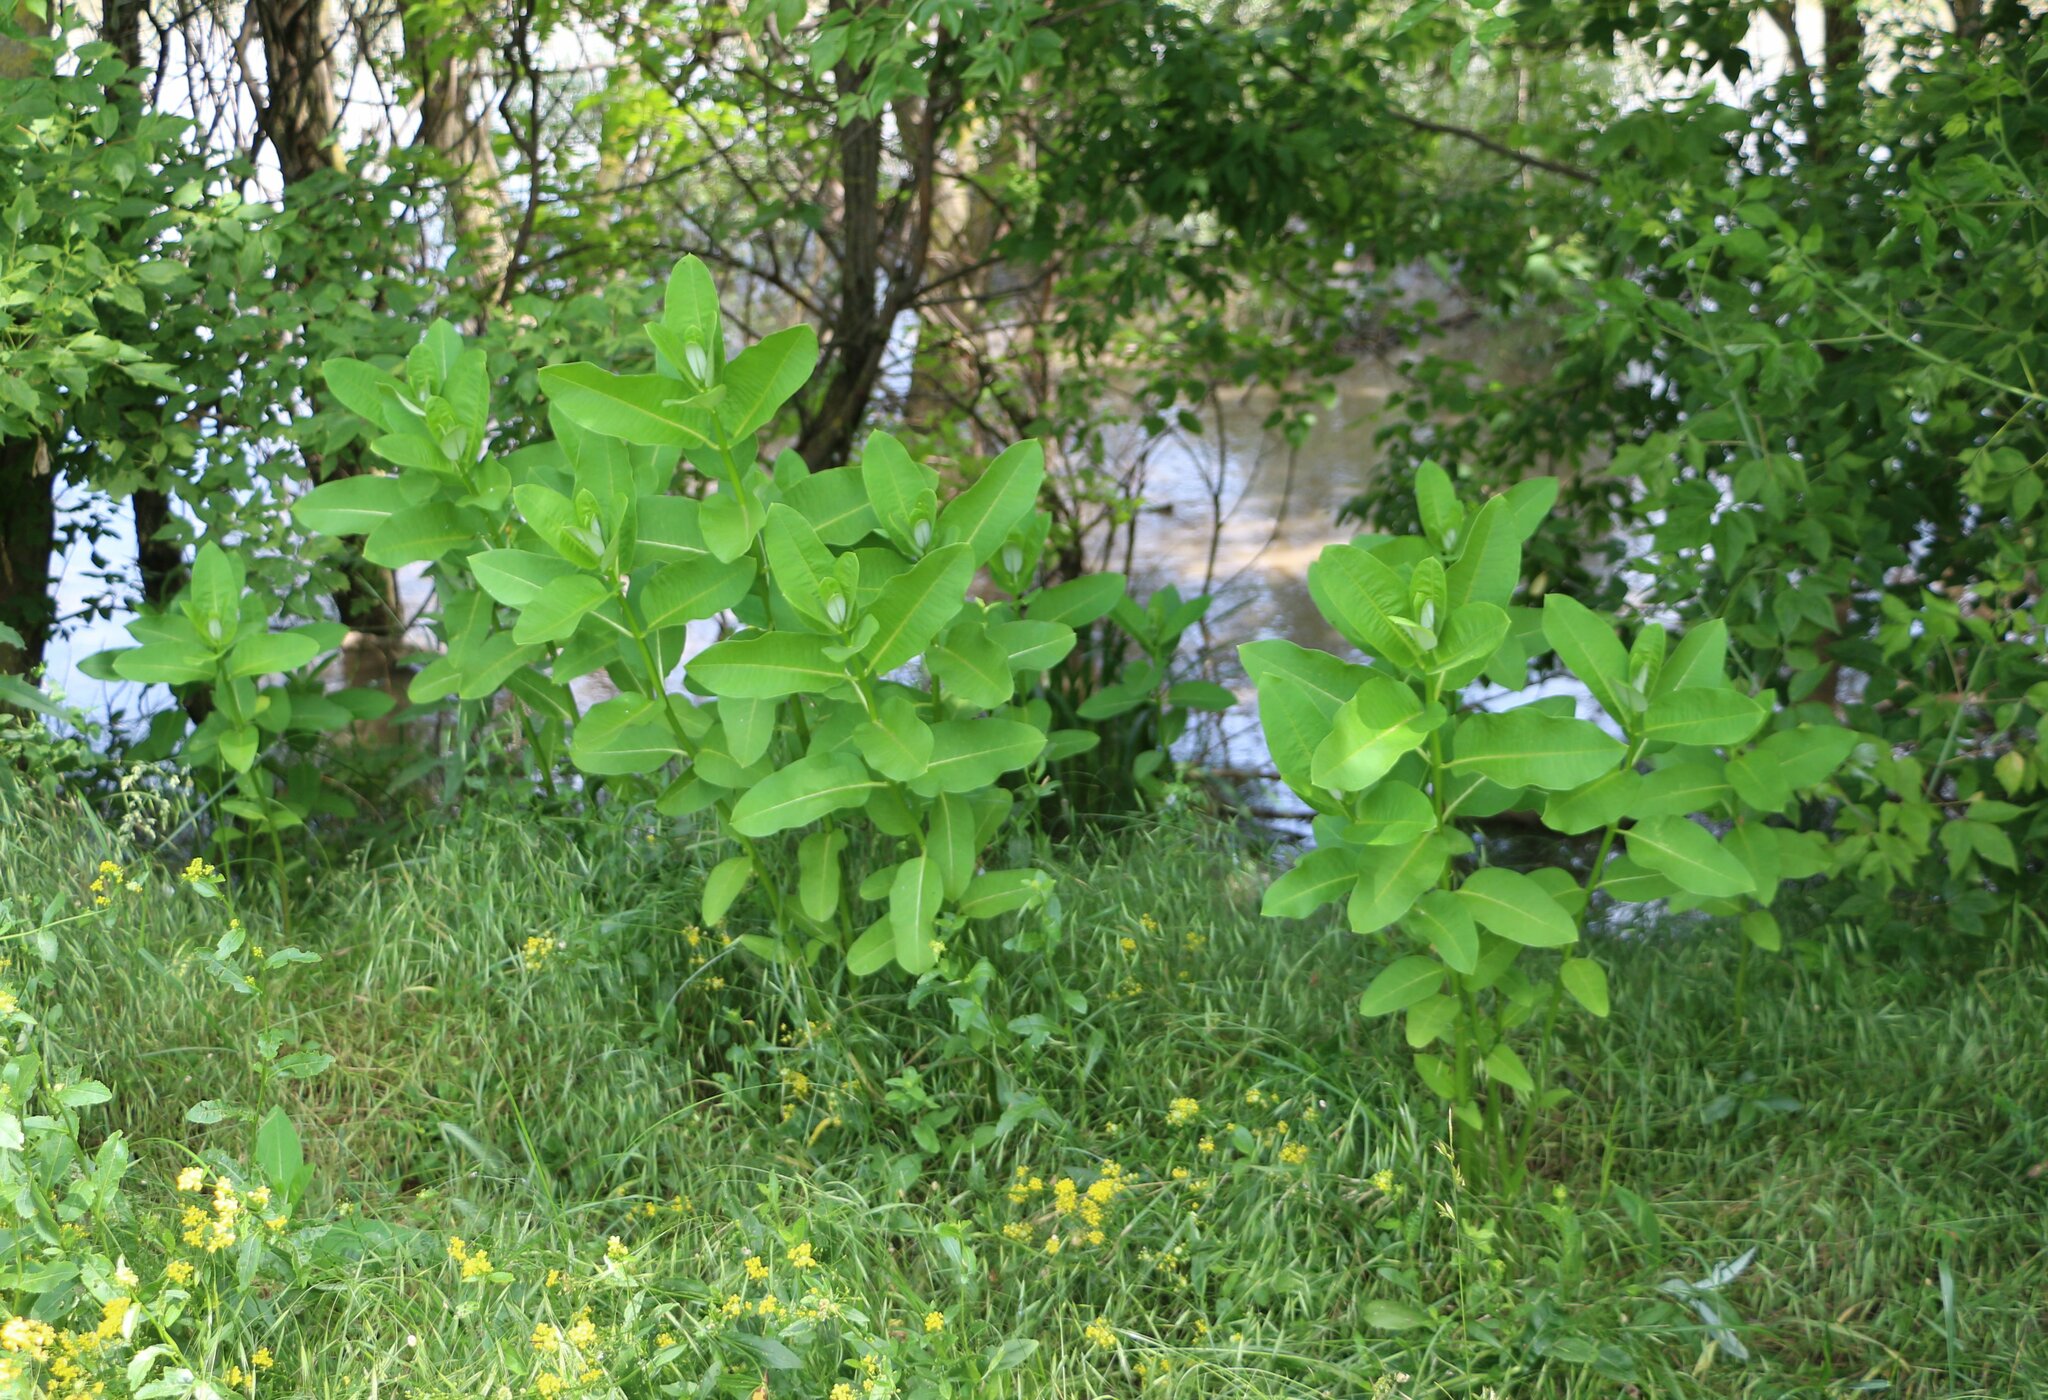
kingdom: Plantae
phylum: Tracheophyta
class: Magnoliopsida
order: Gentianales
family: Apocynaceae
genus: Asclepias
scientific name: Asclepias syriaca
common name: Common milkweed
